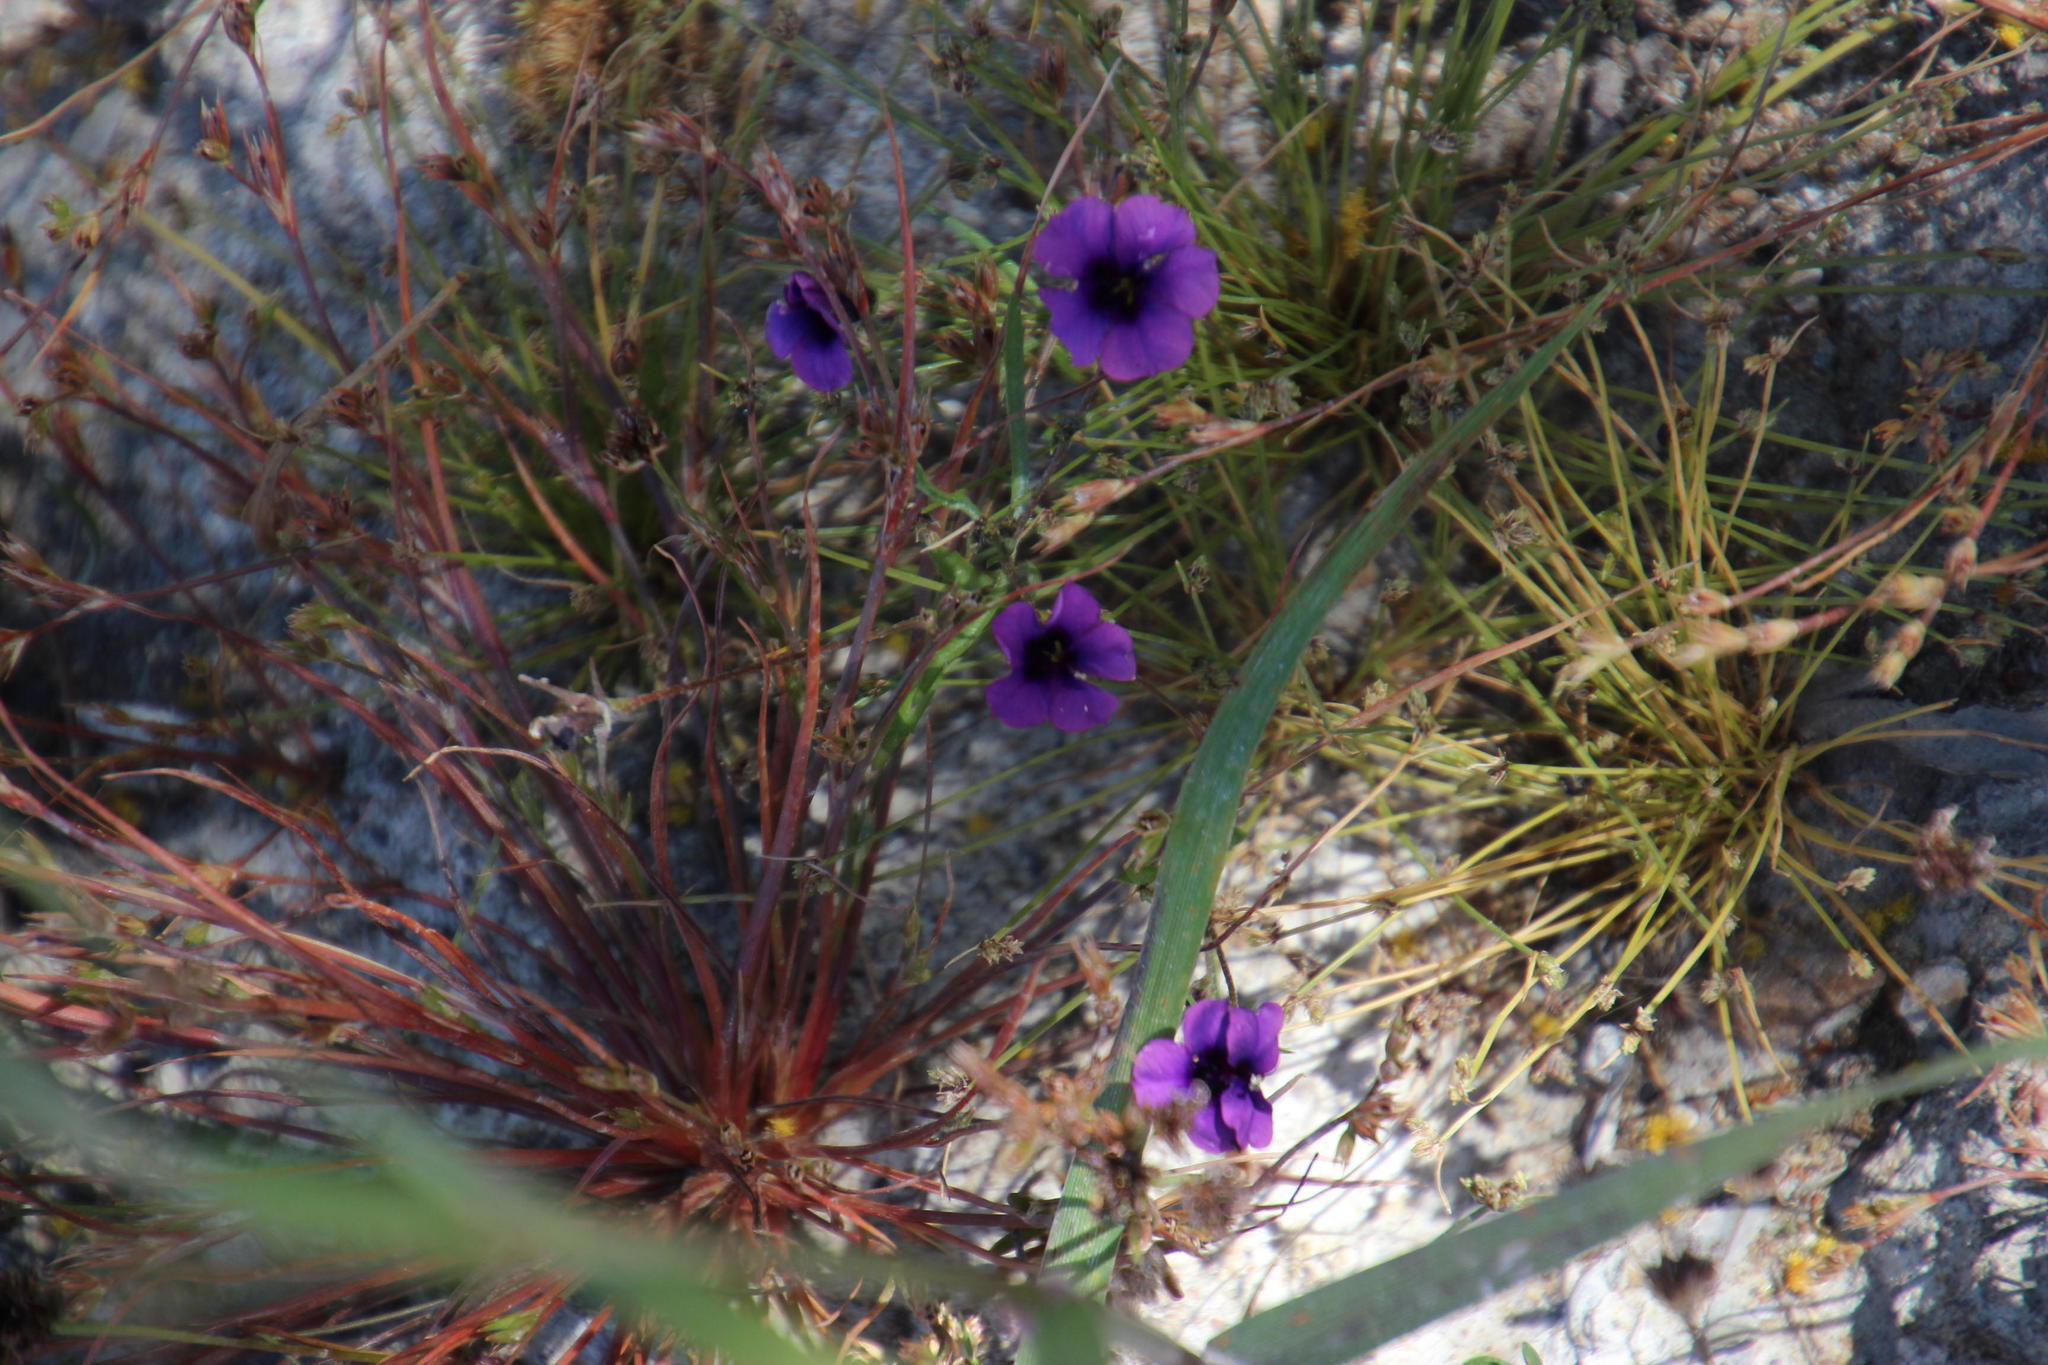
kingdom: Plantae
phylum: Tracheophyta
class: Magnoliopsida
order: Asterales
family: Campanulaceae
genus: Monopsis
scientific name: Monopsis debilis
